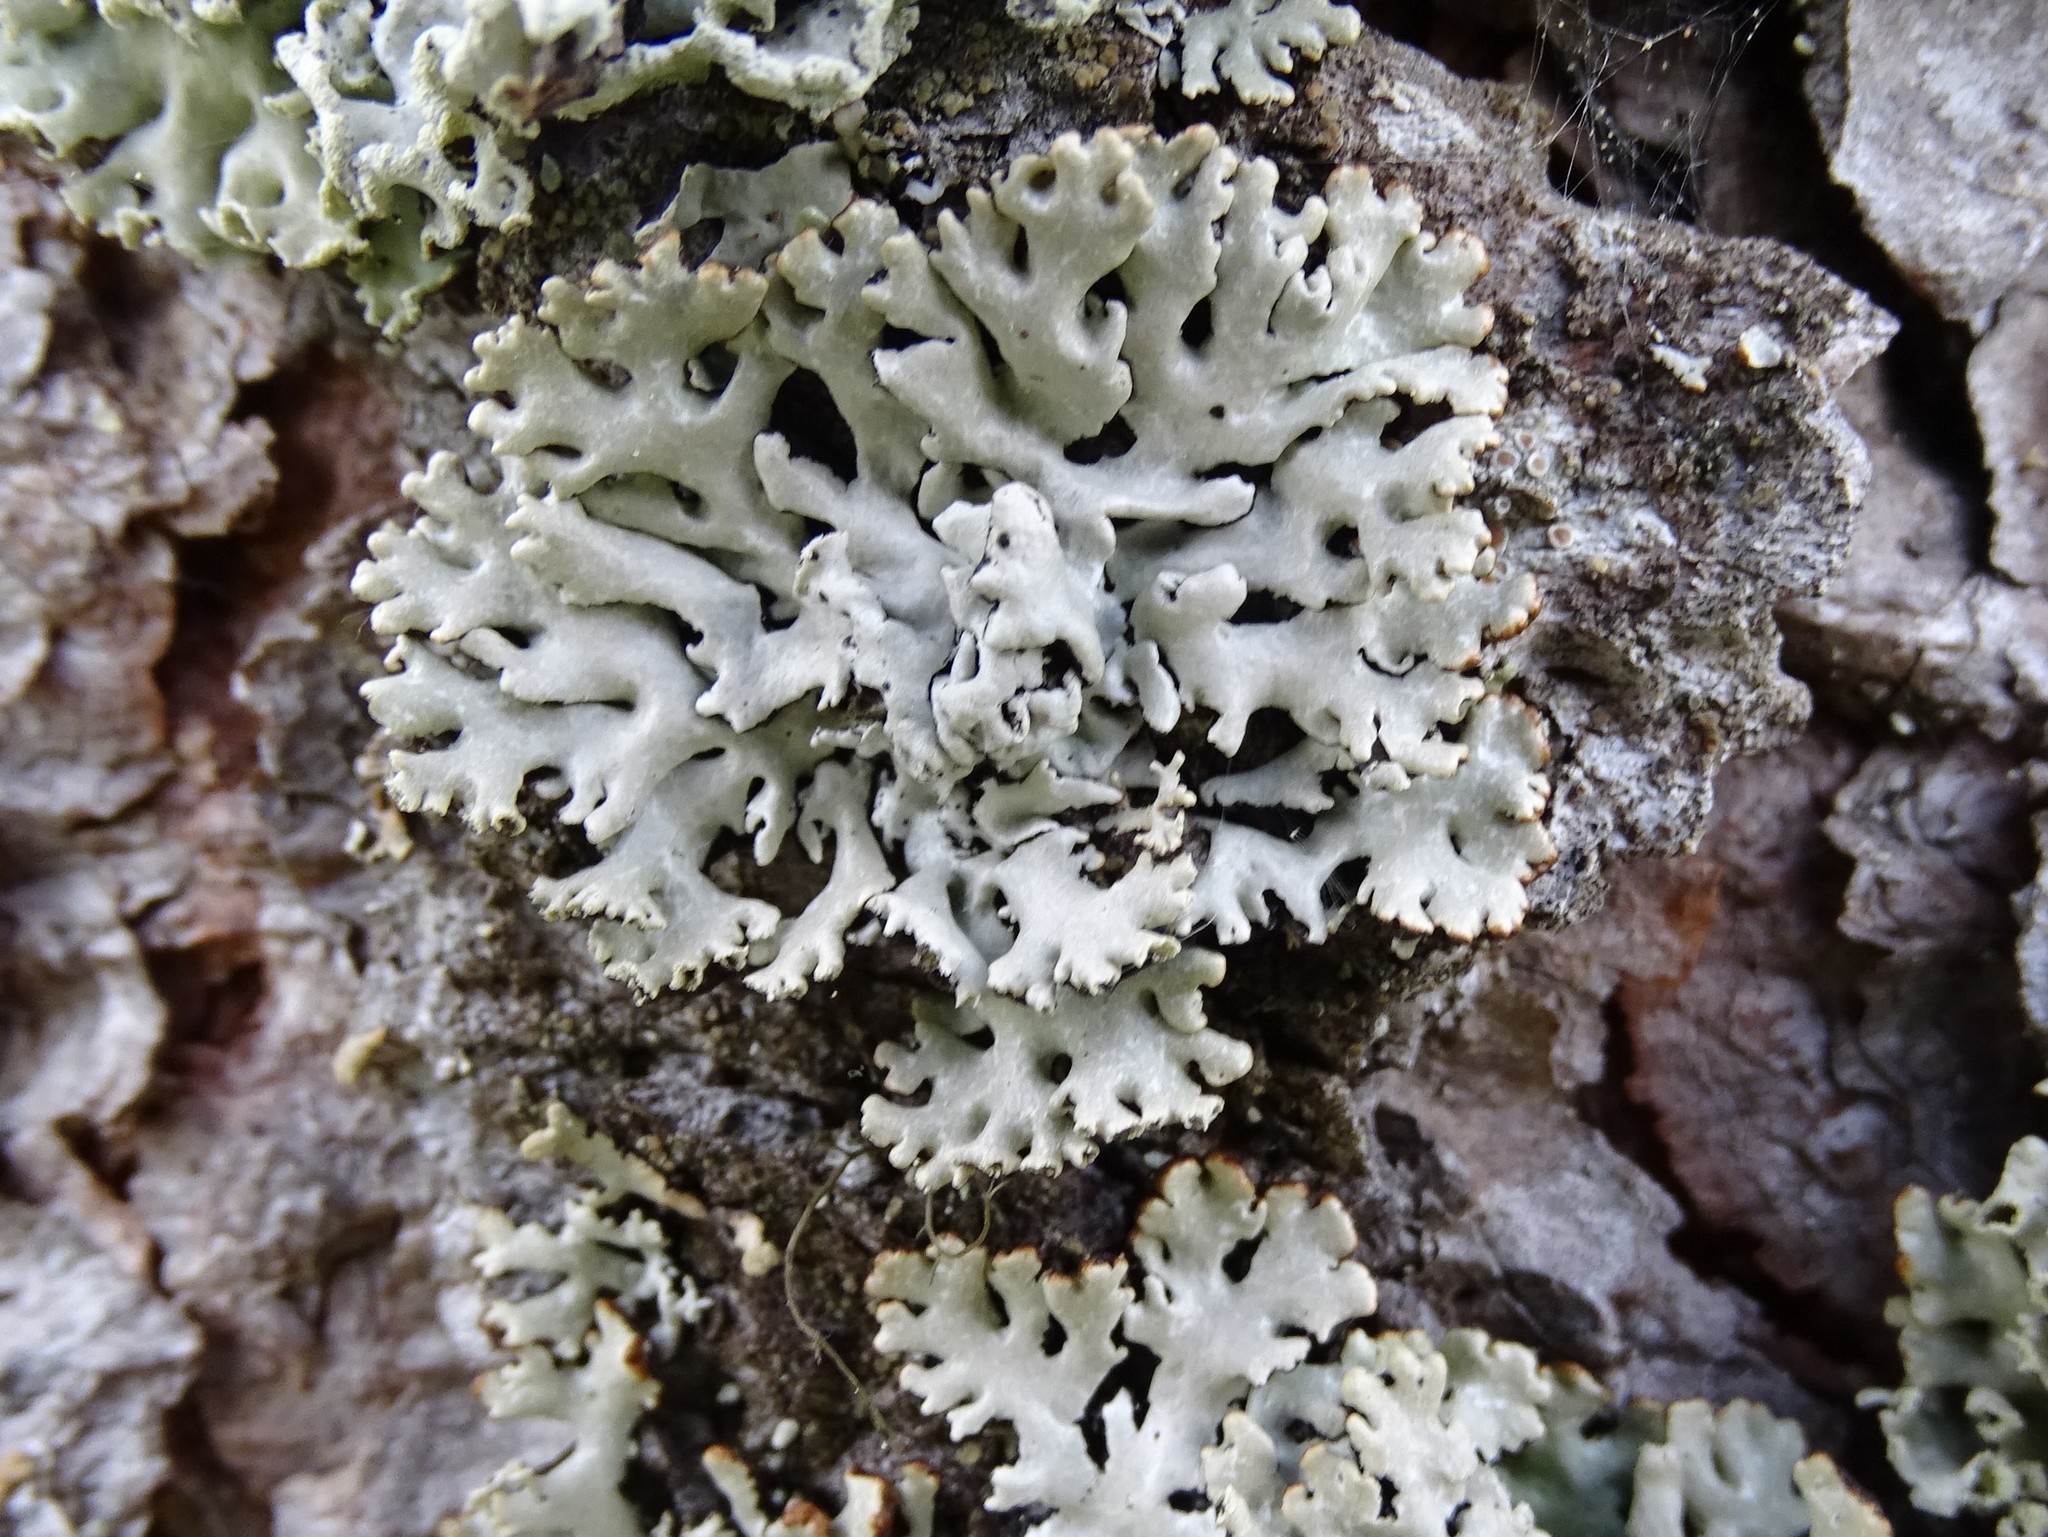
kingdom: Fungi
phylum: Ascomycota
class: Lecanoromycetes
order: Lecanorales
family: Parmeliaceae
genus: Hypogymnia
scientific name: Hypogymnia physodes
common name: Dark crottle
